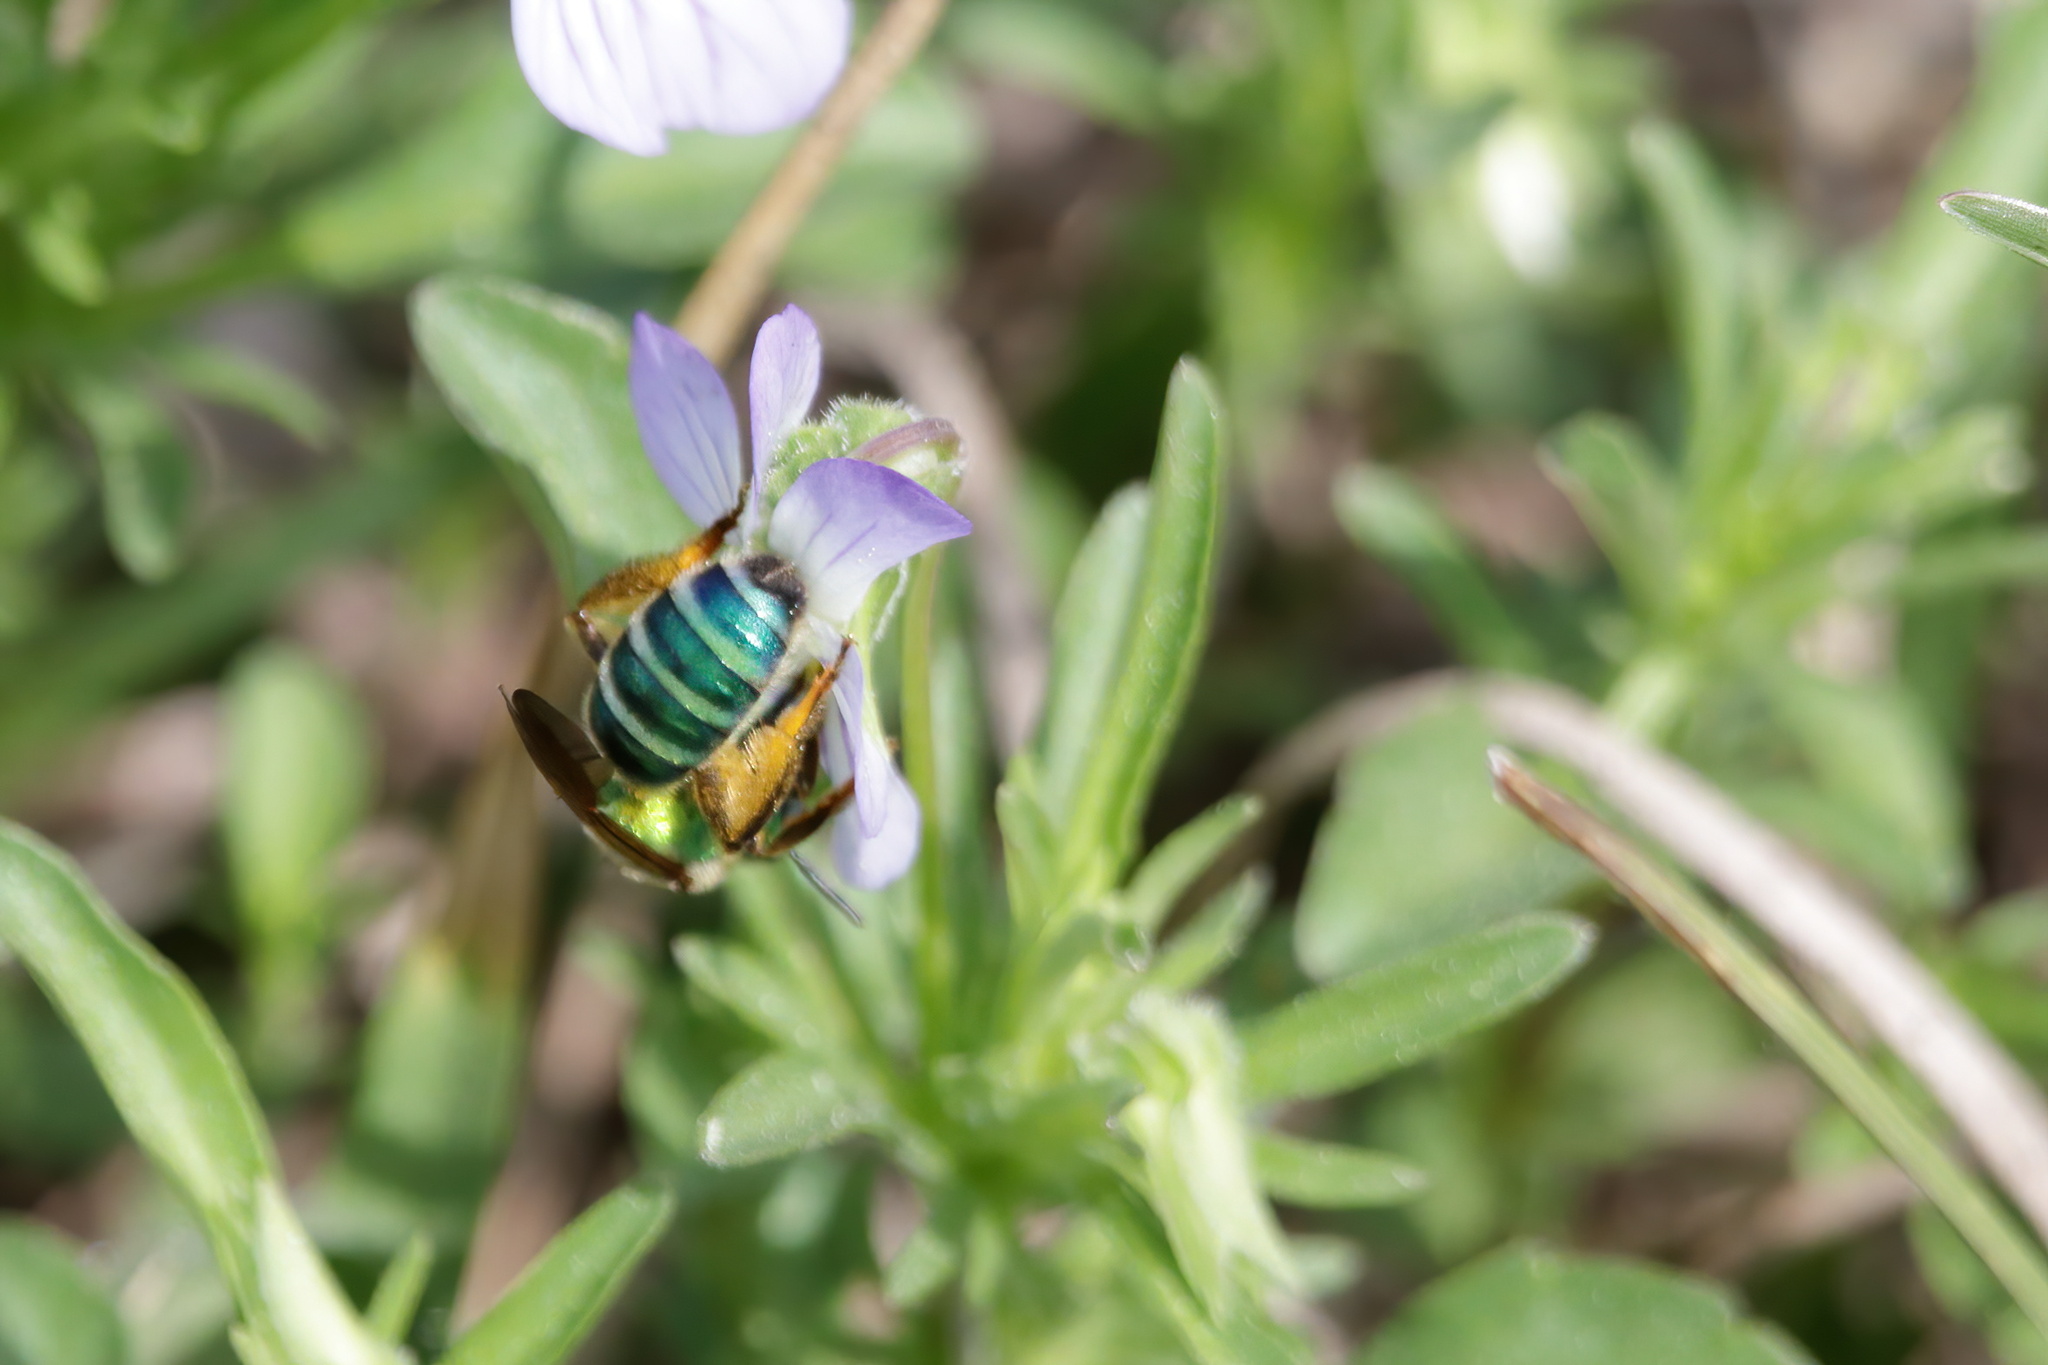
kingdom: Animalia
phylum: Arthropoda
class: Insecta
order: Hymenoptera
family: Halictidae
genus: Agapostemon
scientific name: Agapostemon splendens
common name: Brown-winged striped sweat bee
